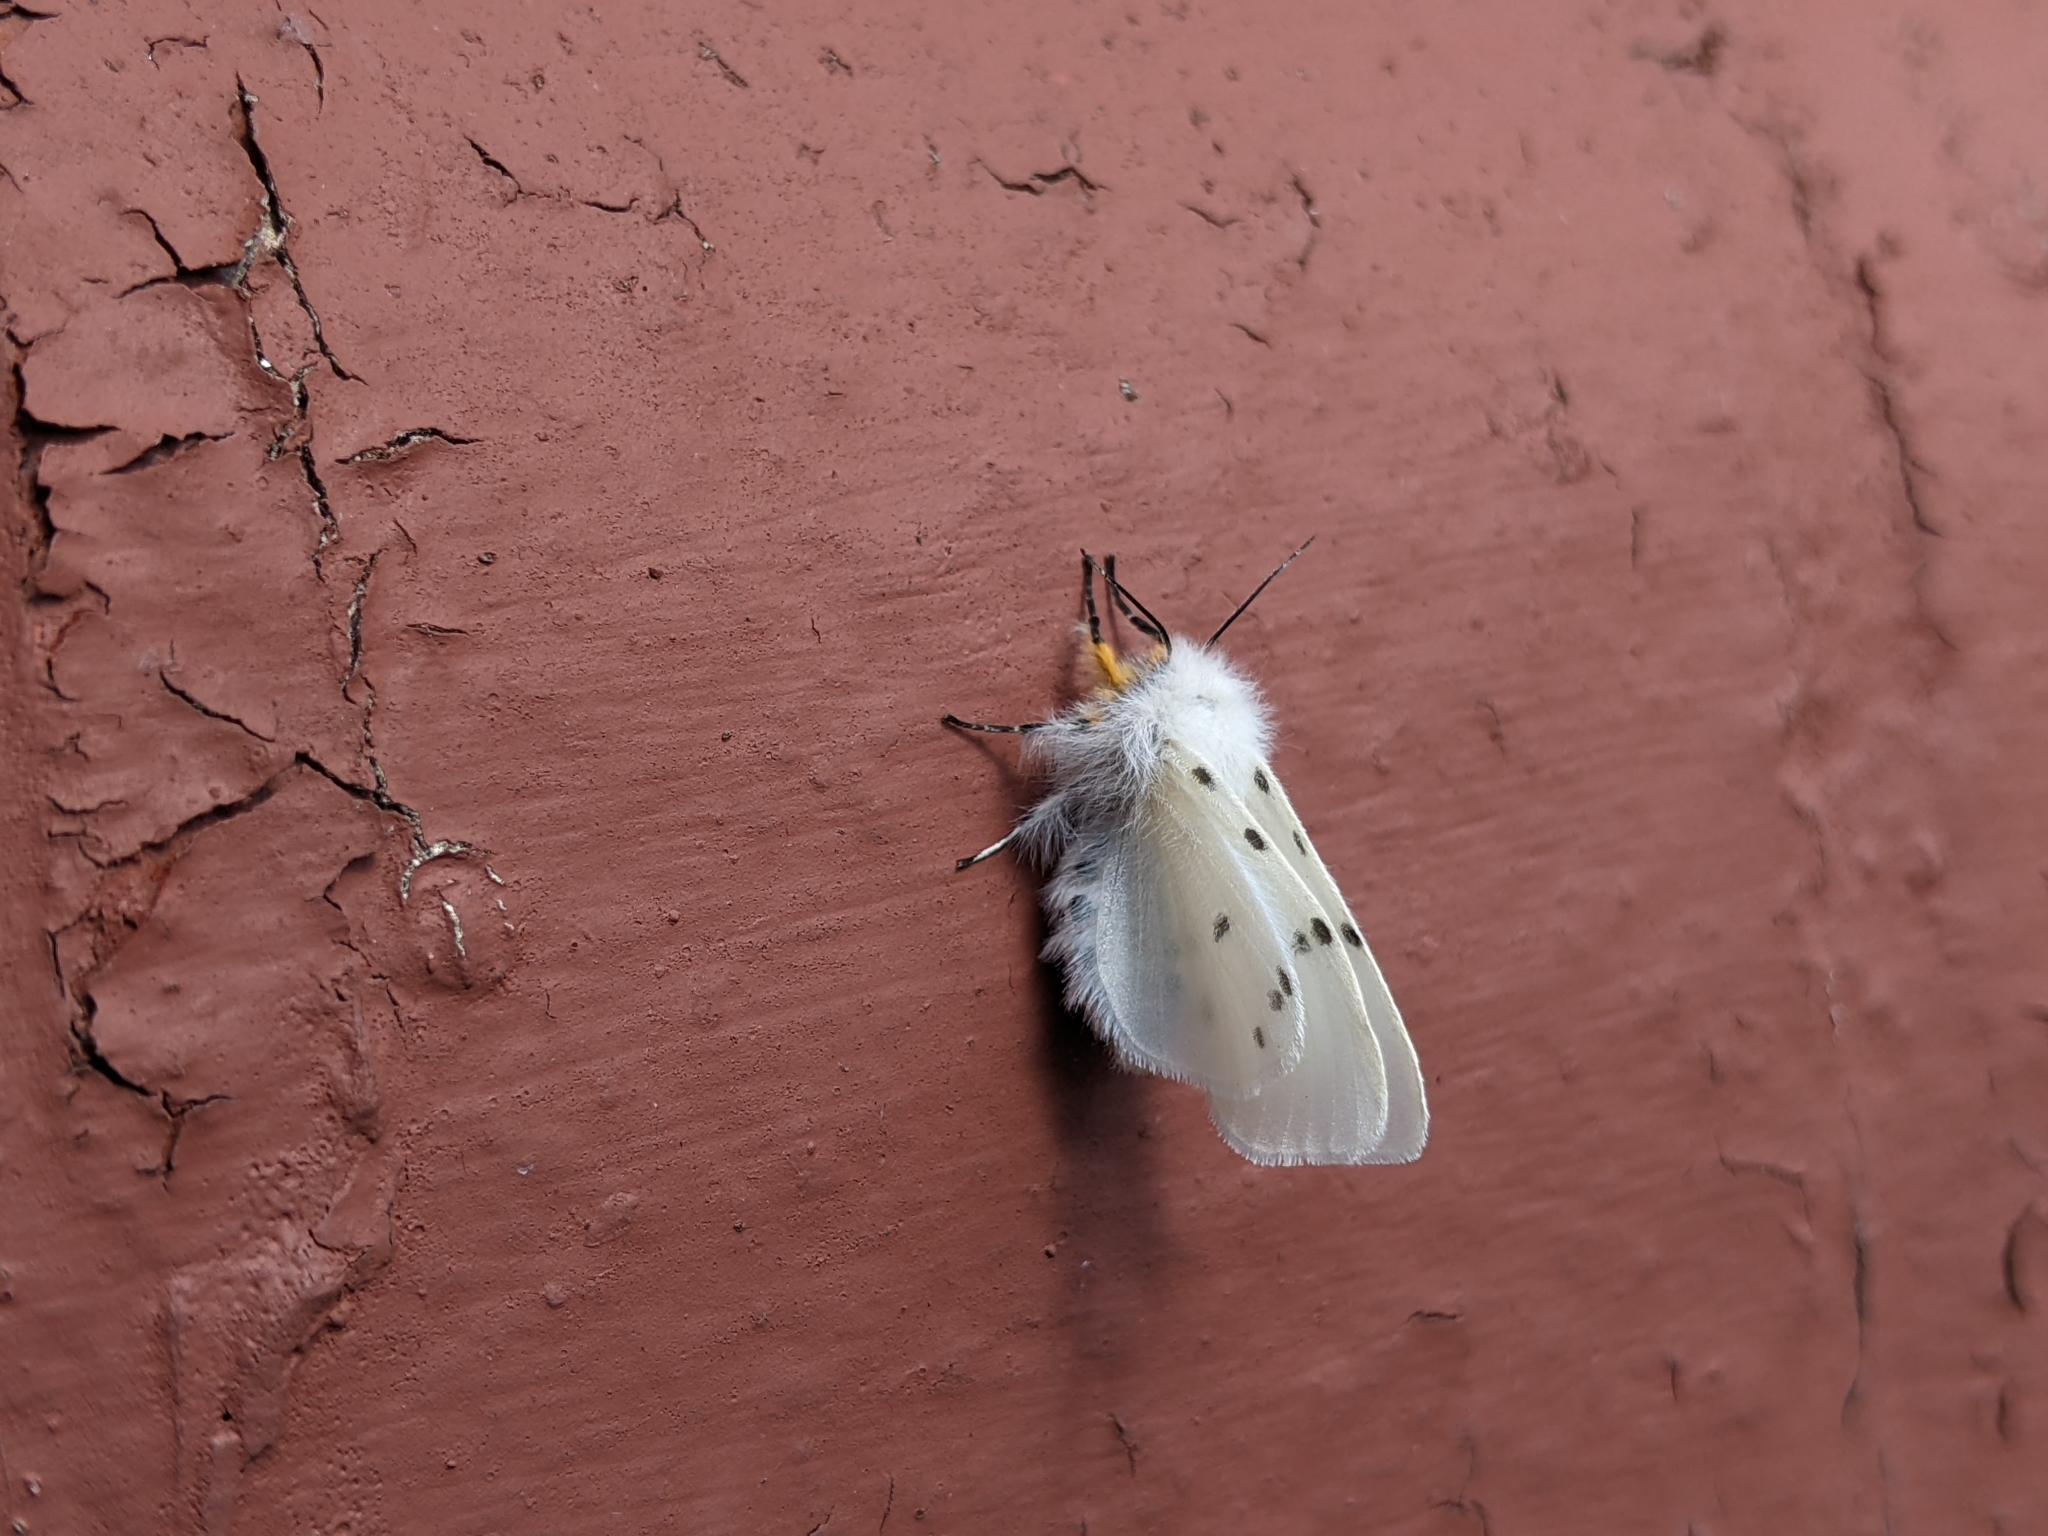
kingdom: Animalia
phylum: Arthropoda
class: Insecta
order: Lepidoptera
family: Erebidae
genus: Diaphora
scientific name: Diaphora mendica
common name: Muslin moth
